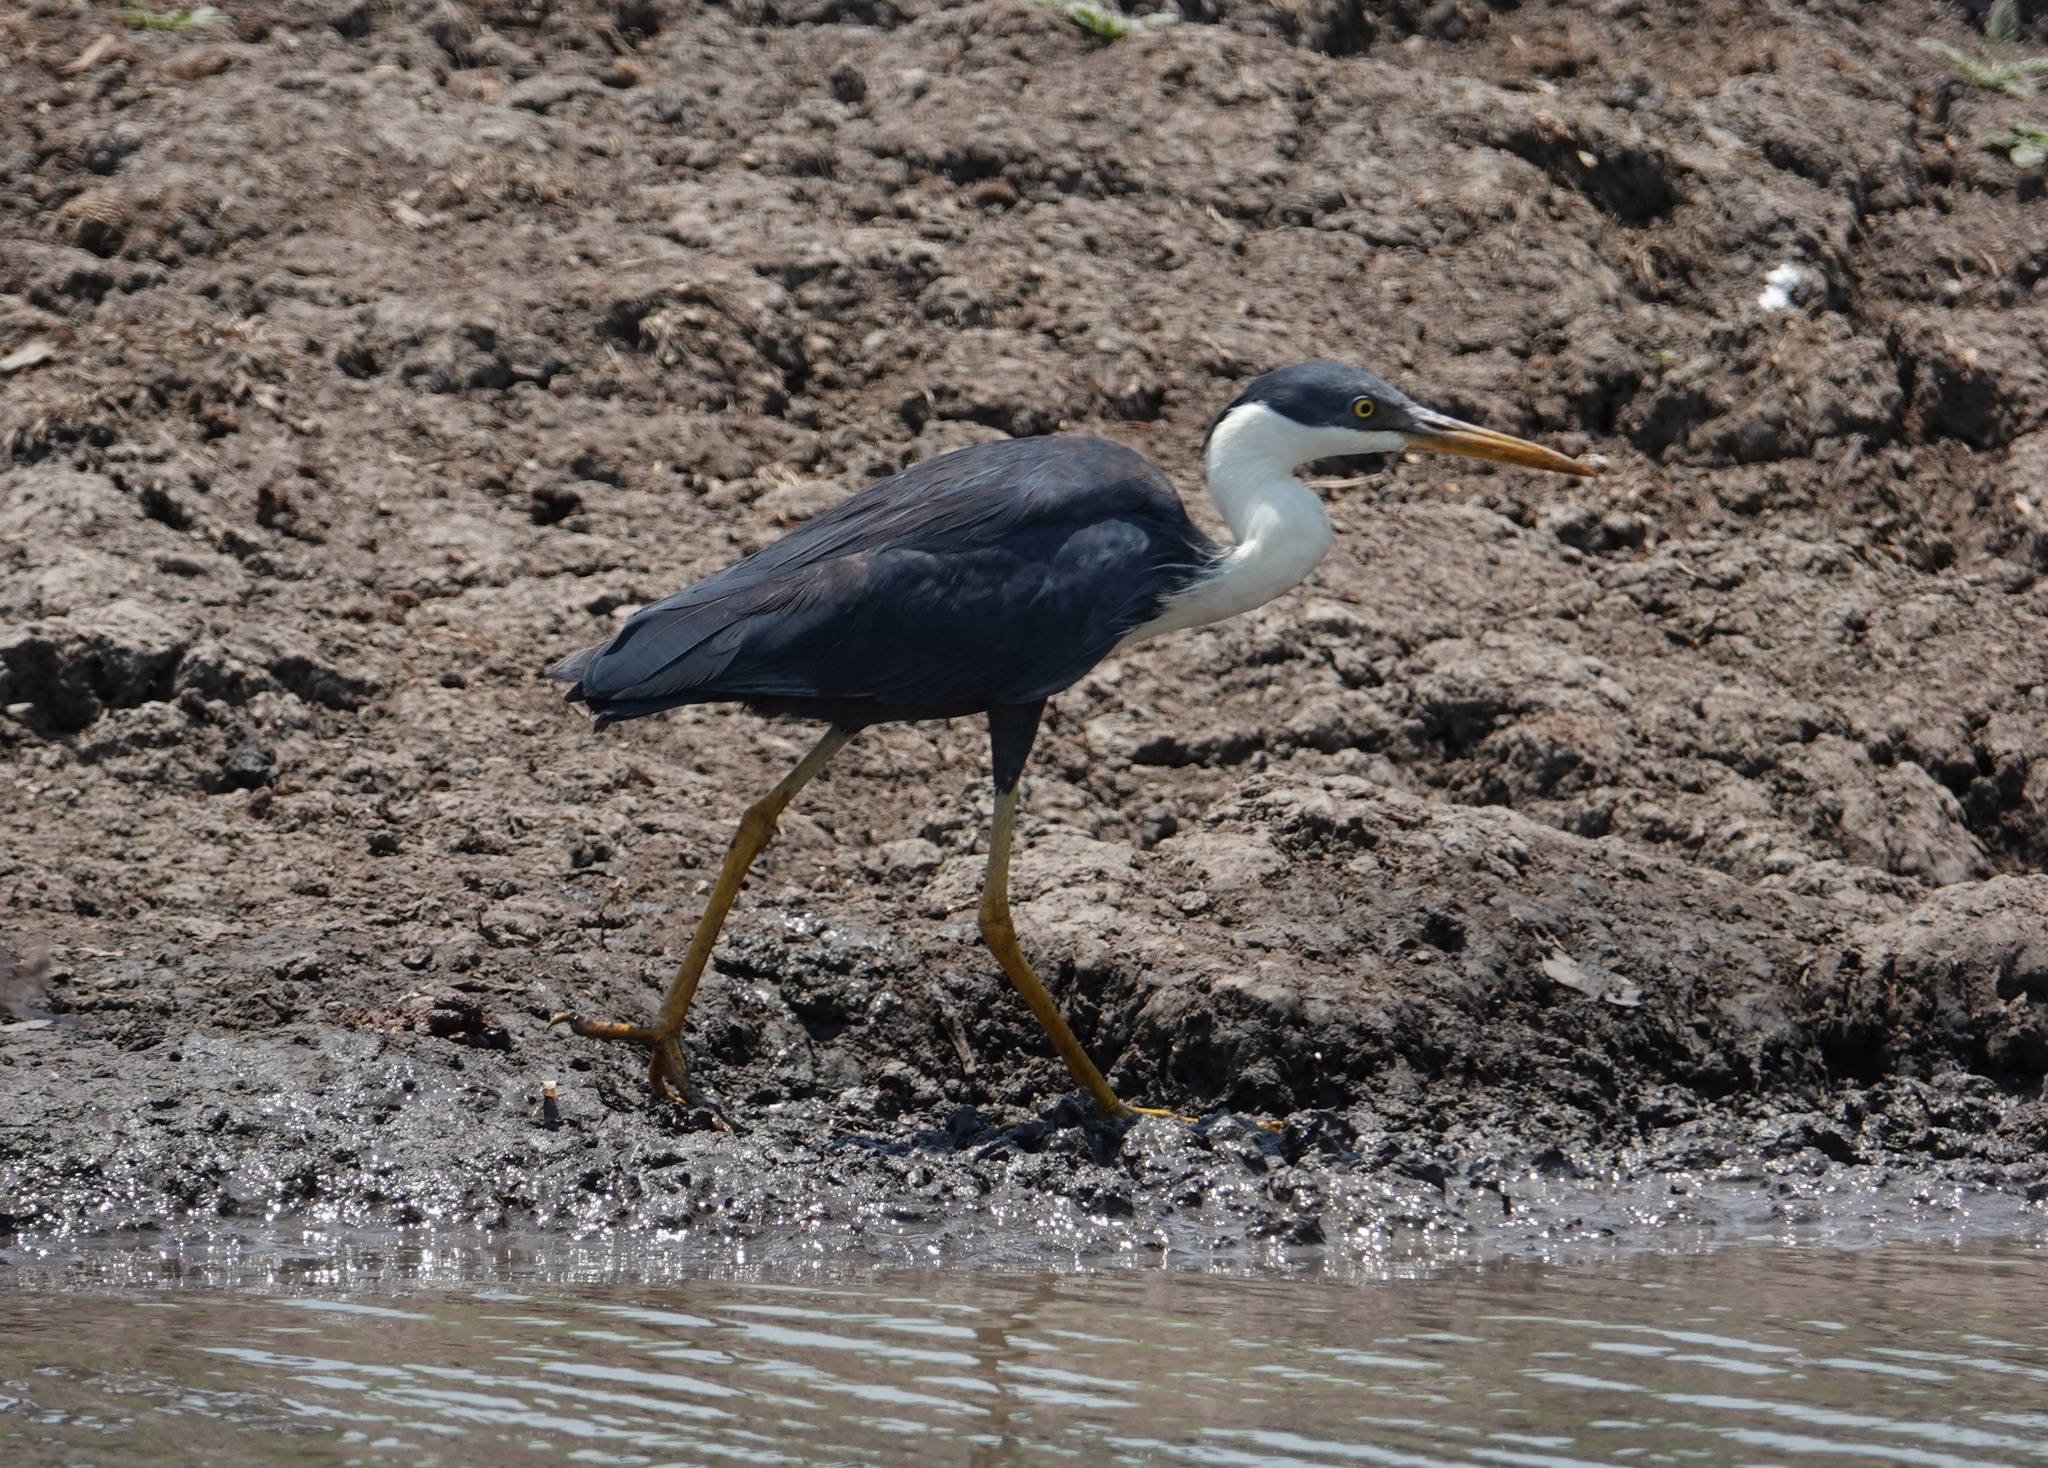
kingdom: Animalia
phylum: Chordata
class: Aves
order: Pelecaniformes
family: Ardeidae
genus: Egretta
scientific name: Egretta picata
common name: Pied heron
